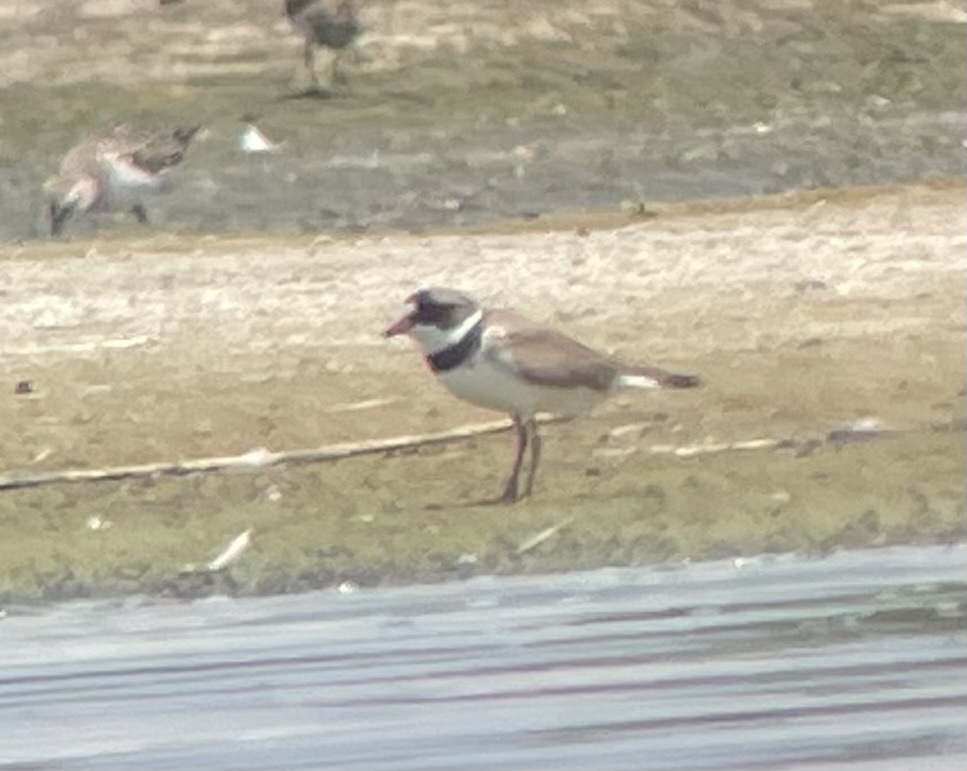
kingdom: Animalia
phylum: Chordata
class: Aves
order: Charadriiformes
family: Charadriidae
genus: Charadrius
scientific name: Charadrius semipalmatus
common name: Semipalmated plover
